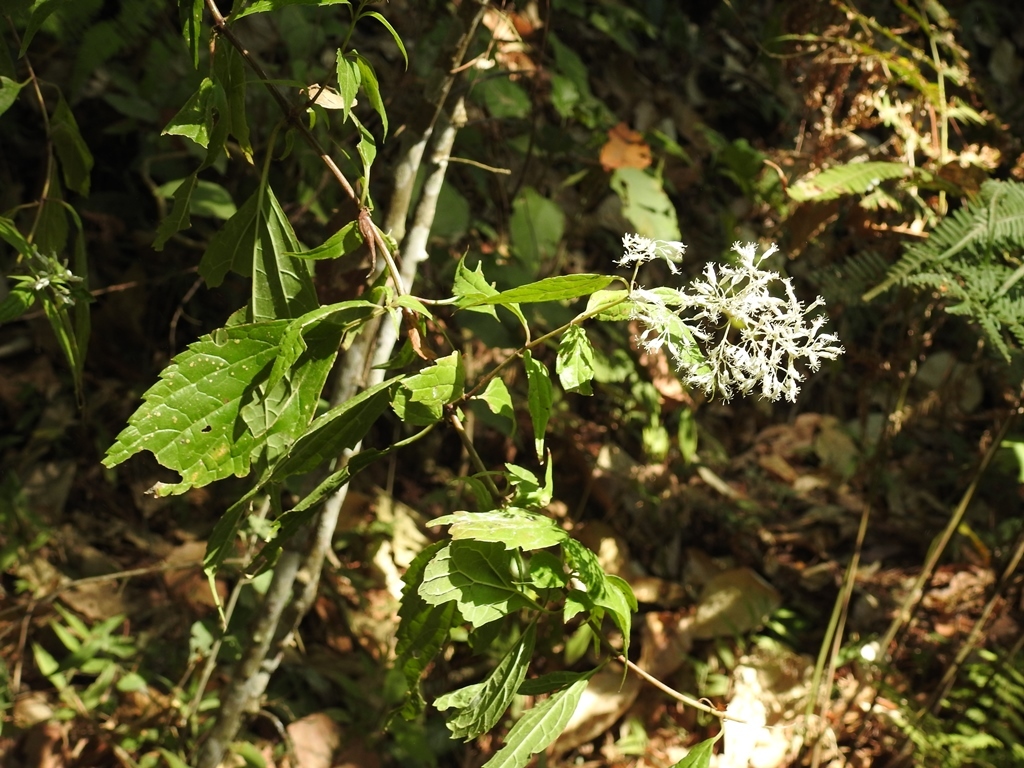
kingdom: Plantae
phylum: Tracheophyta
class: Magnoliopsida
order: Asterales
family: Asteraceae
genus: Fleischmanniopsis
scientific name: Fleischmanniopsis leucocephala
